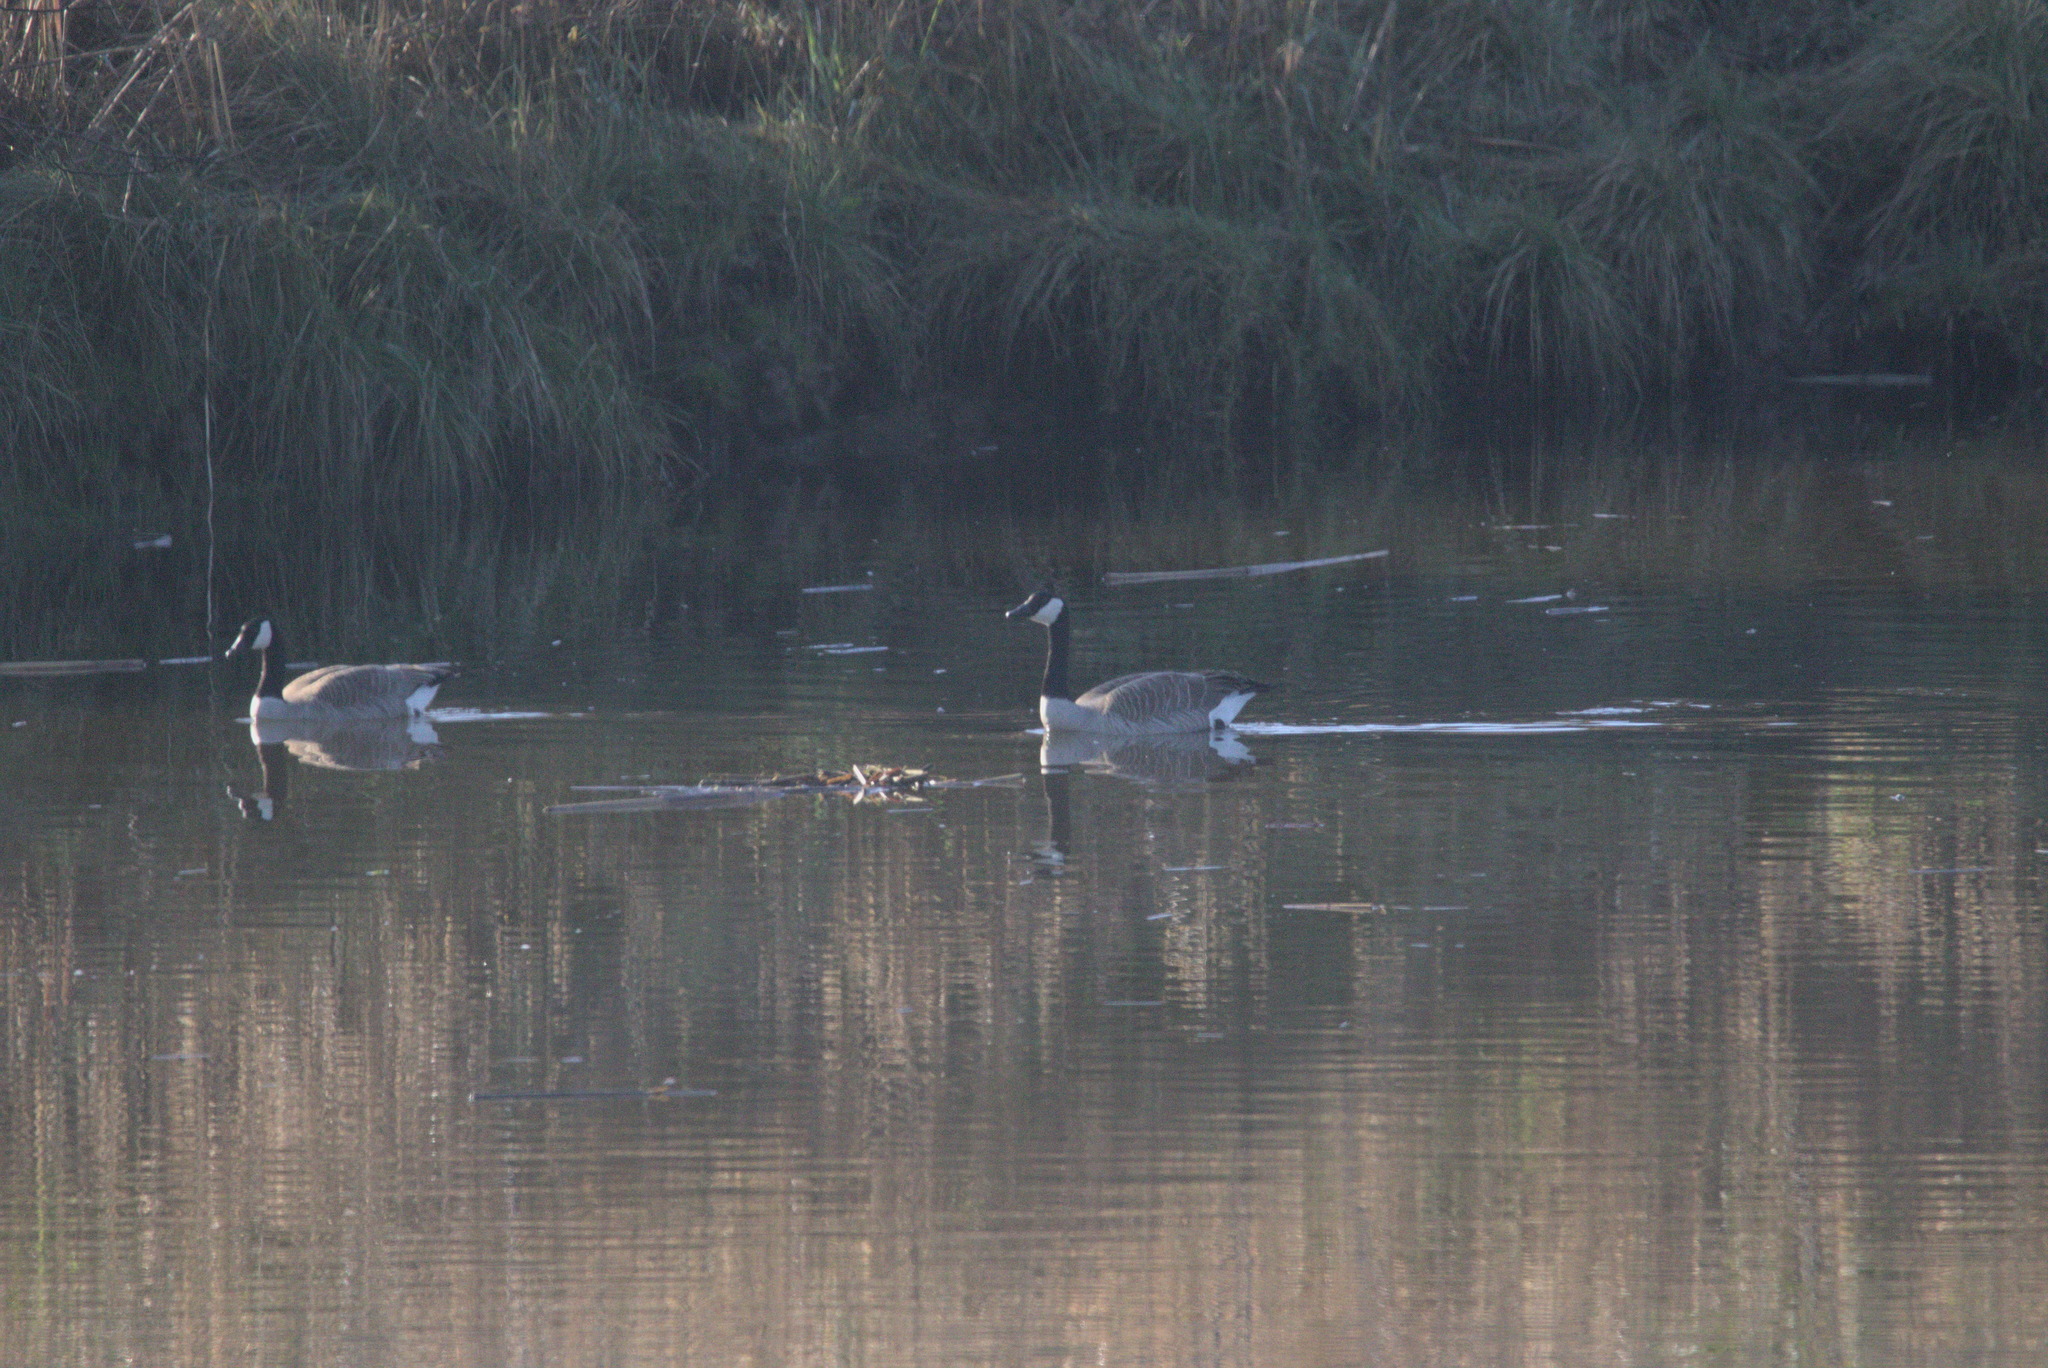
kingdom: Animalia
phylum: Chordata
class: Aves
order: Anseriformes
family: Anatidae
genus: Branta
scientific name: Branta canadensis
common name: Canada goose
